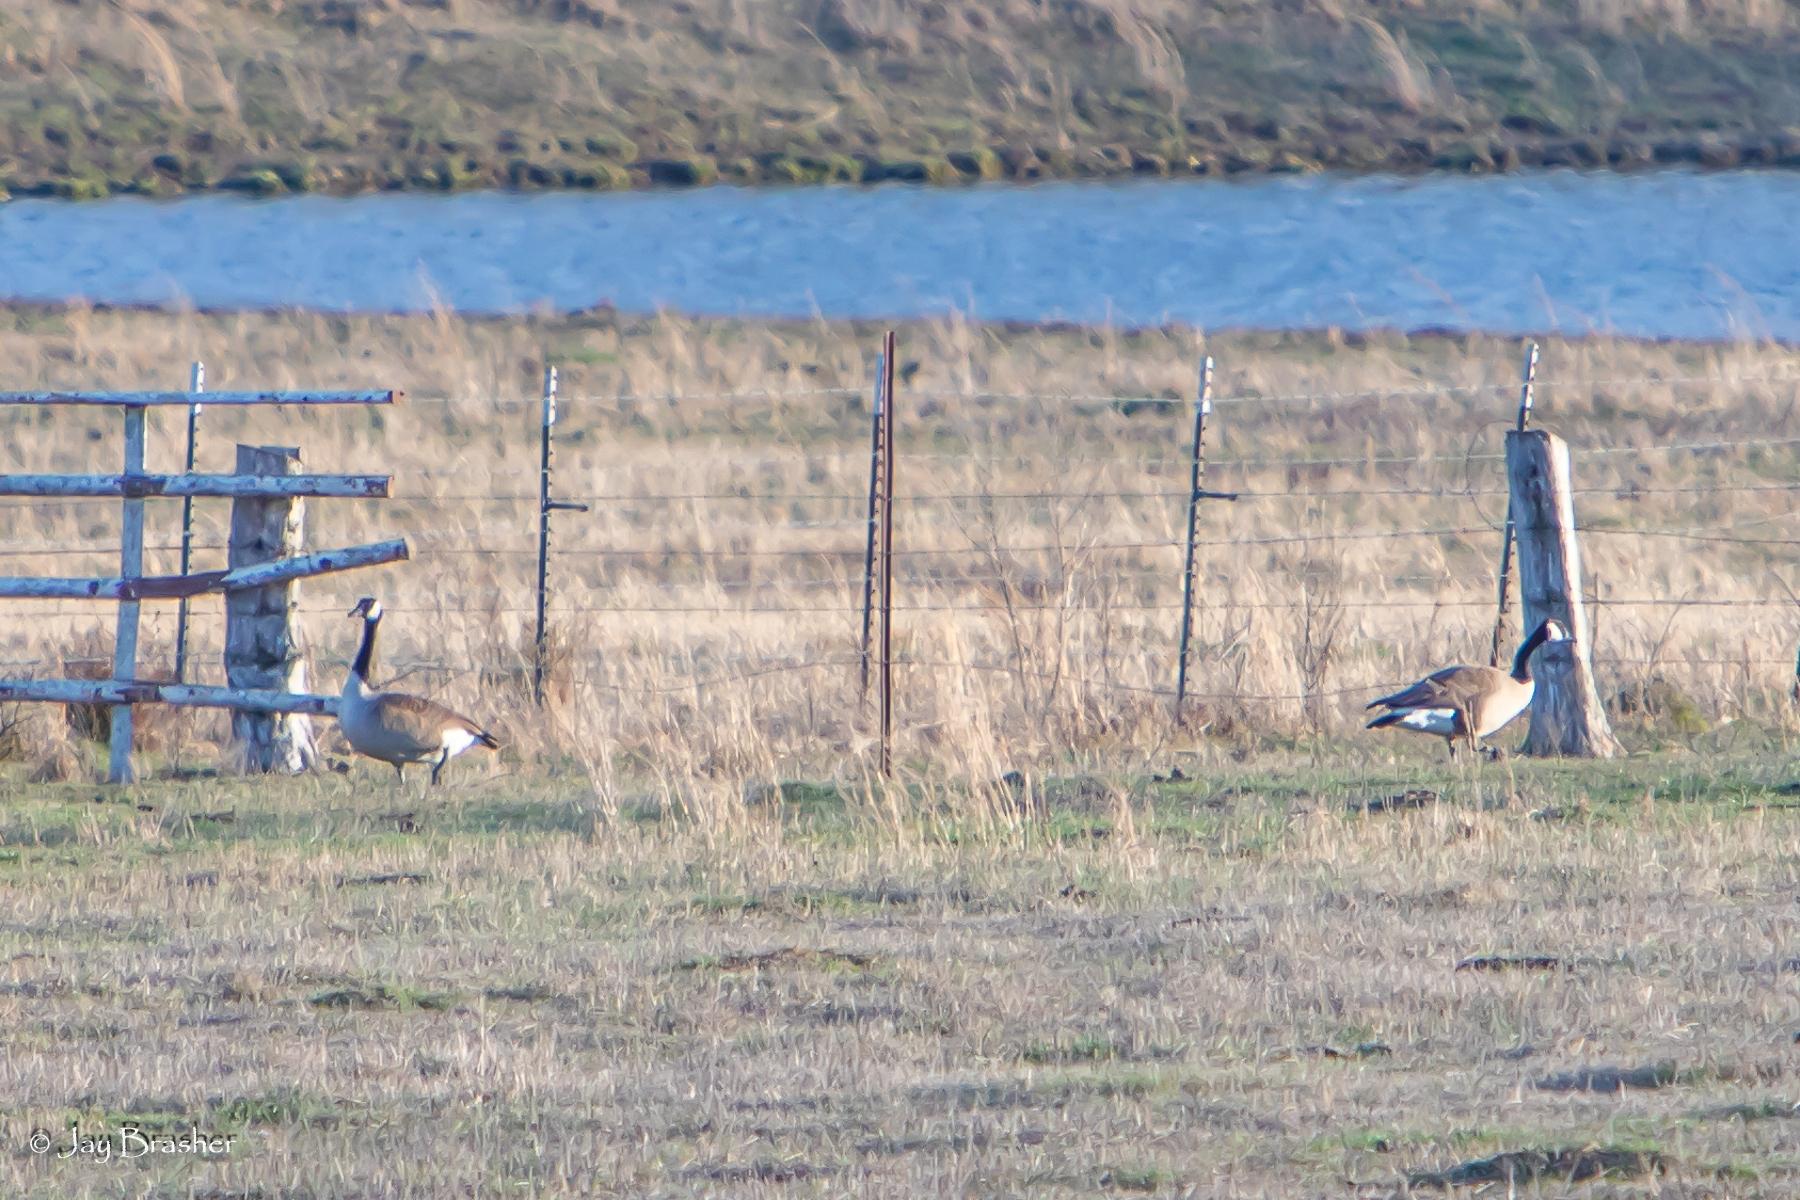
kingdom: Animalia
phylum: Chordata
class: Aves
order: Anseriformes
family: Anatidae
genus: Branta
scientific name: Branta canadensis
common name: Canada goose
